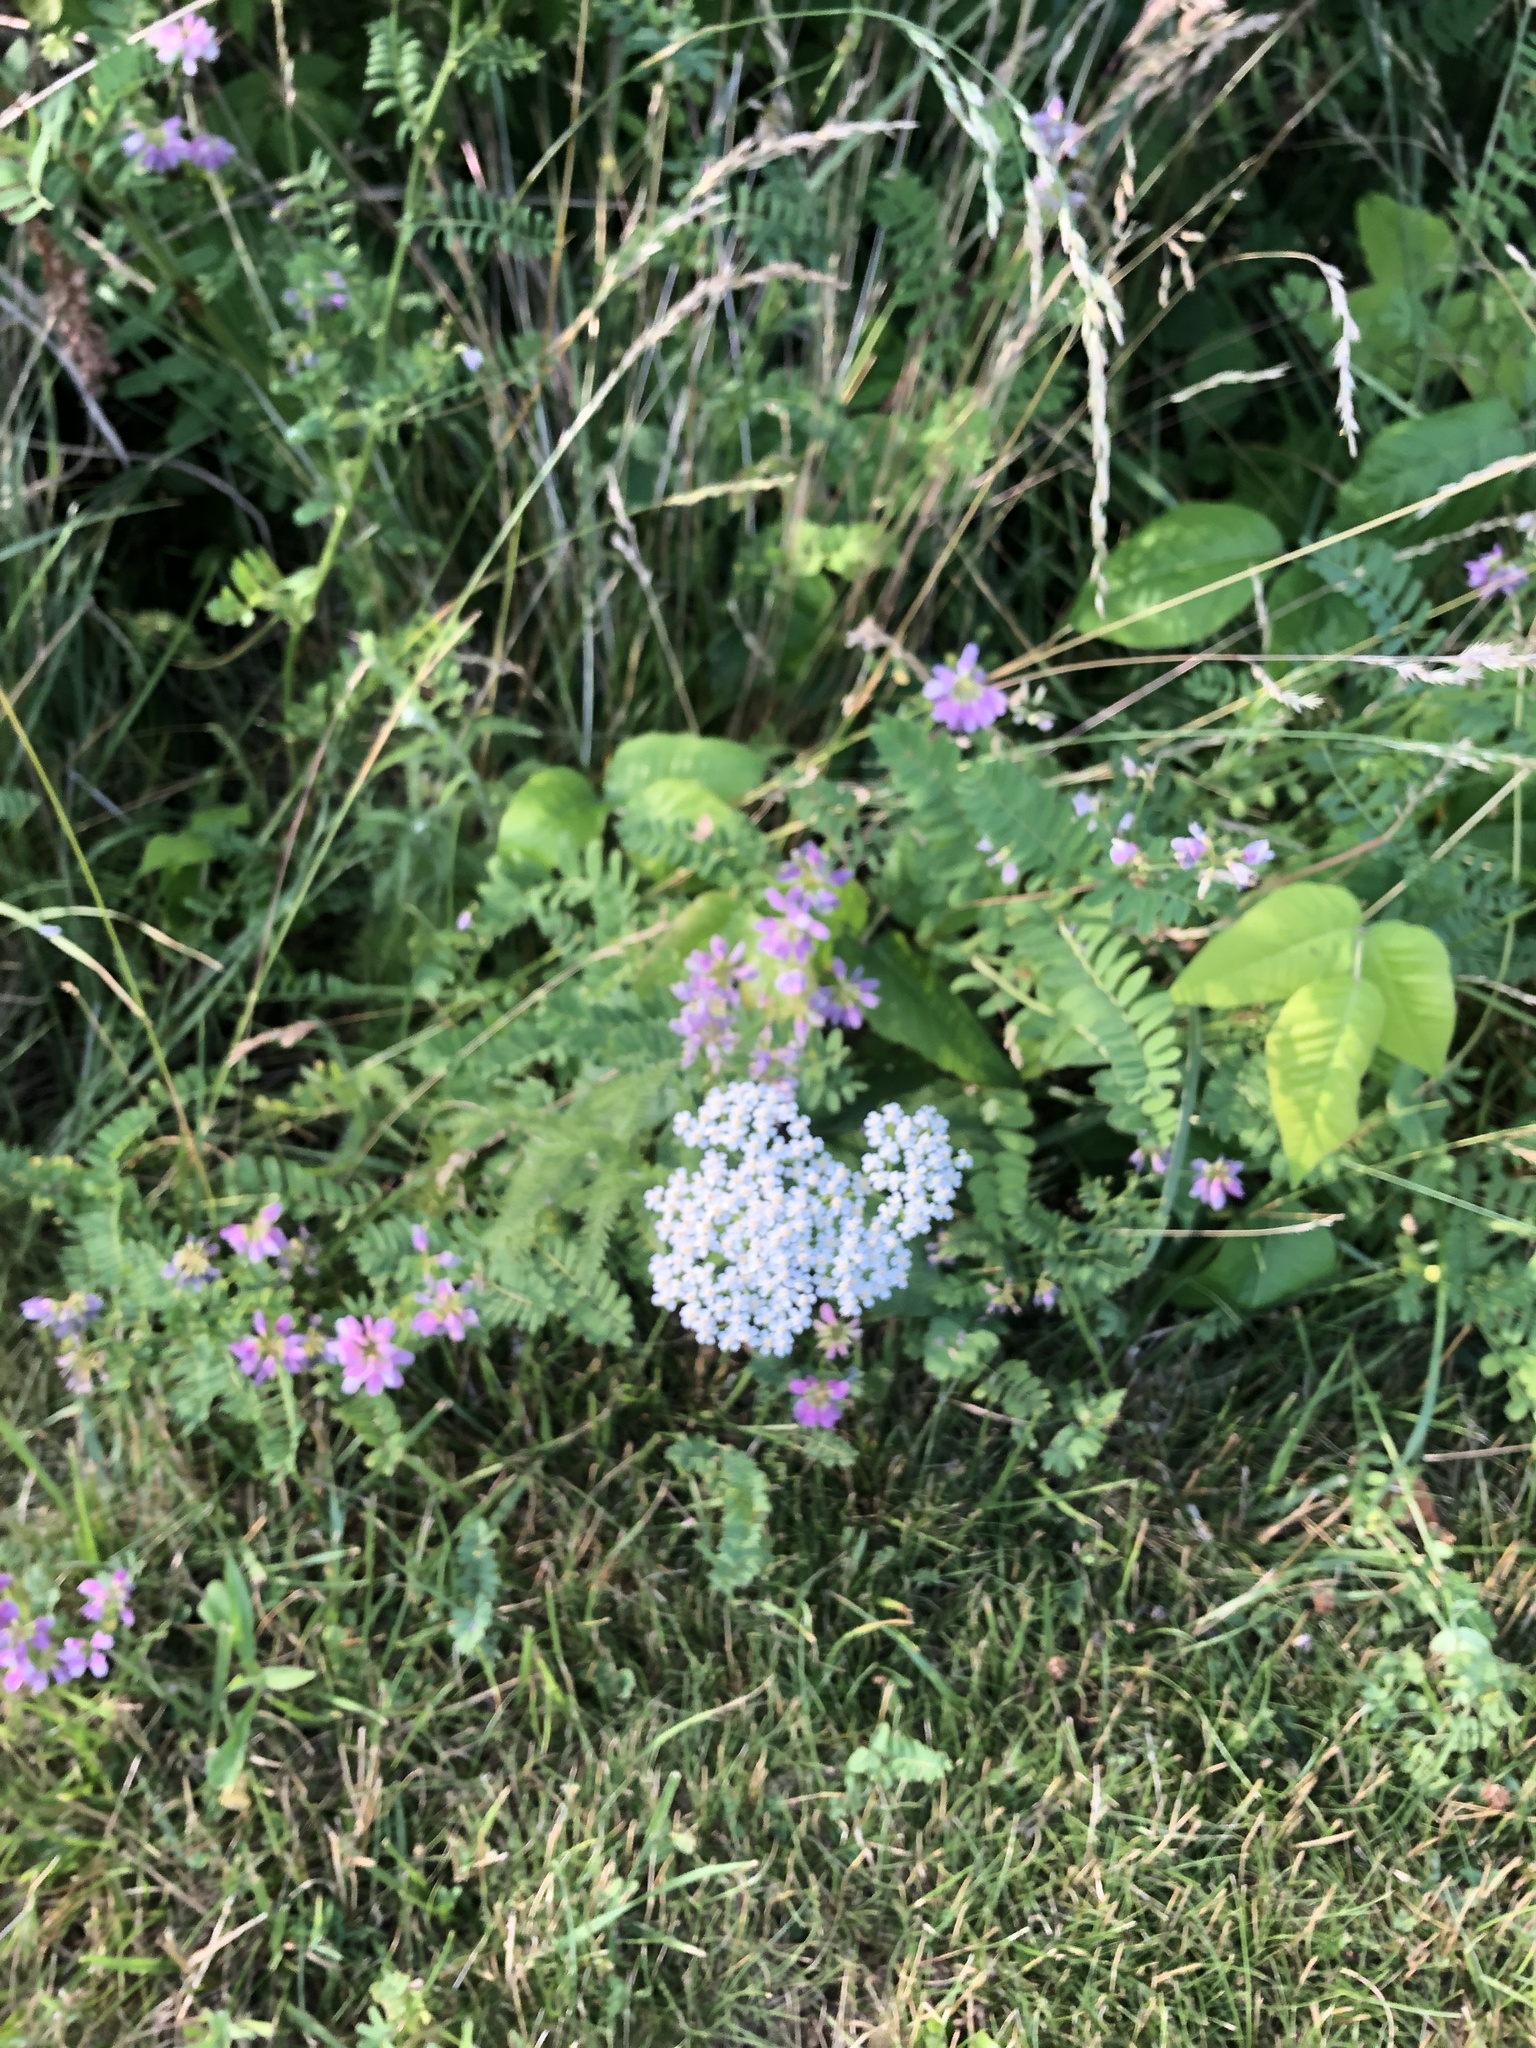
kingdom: Plantae
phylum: Tracheophyta
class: Magnoliopsida
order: Asterales
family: Asteraceae
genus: Achillea
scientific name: Achillea millefolium
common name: Yarrow
